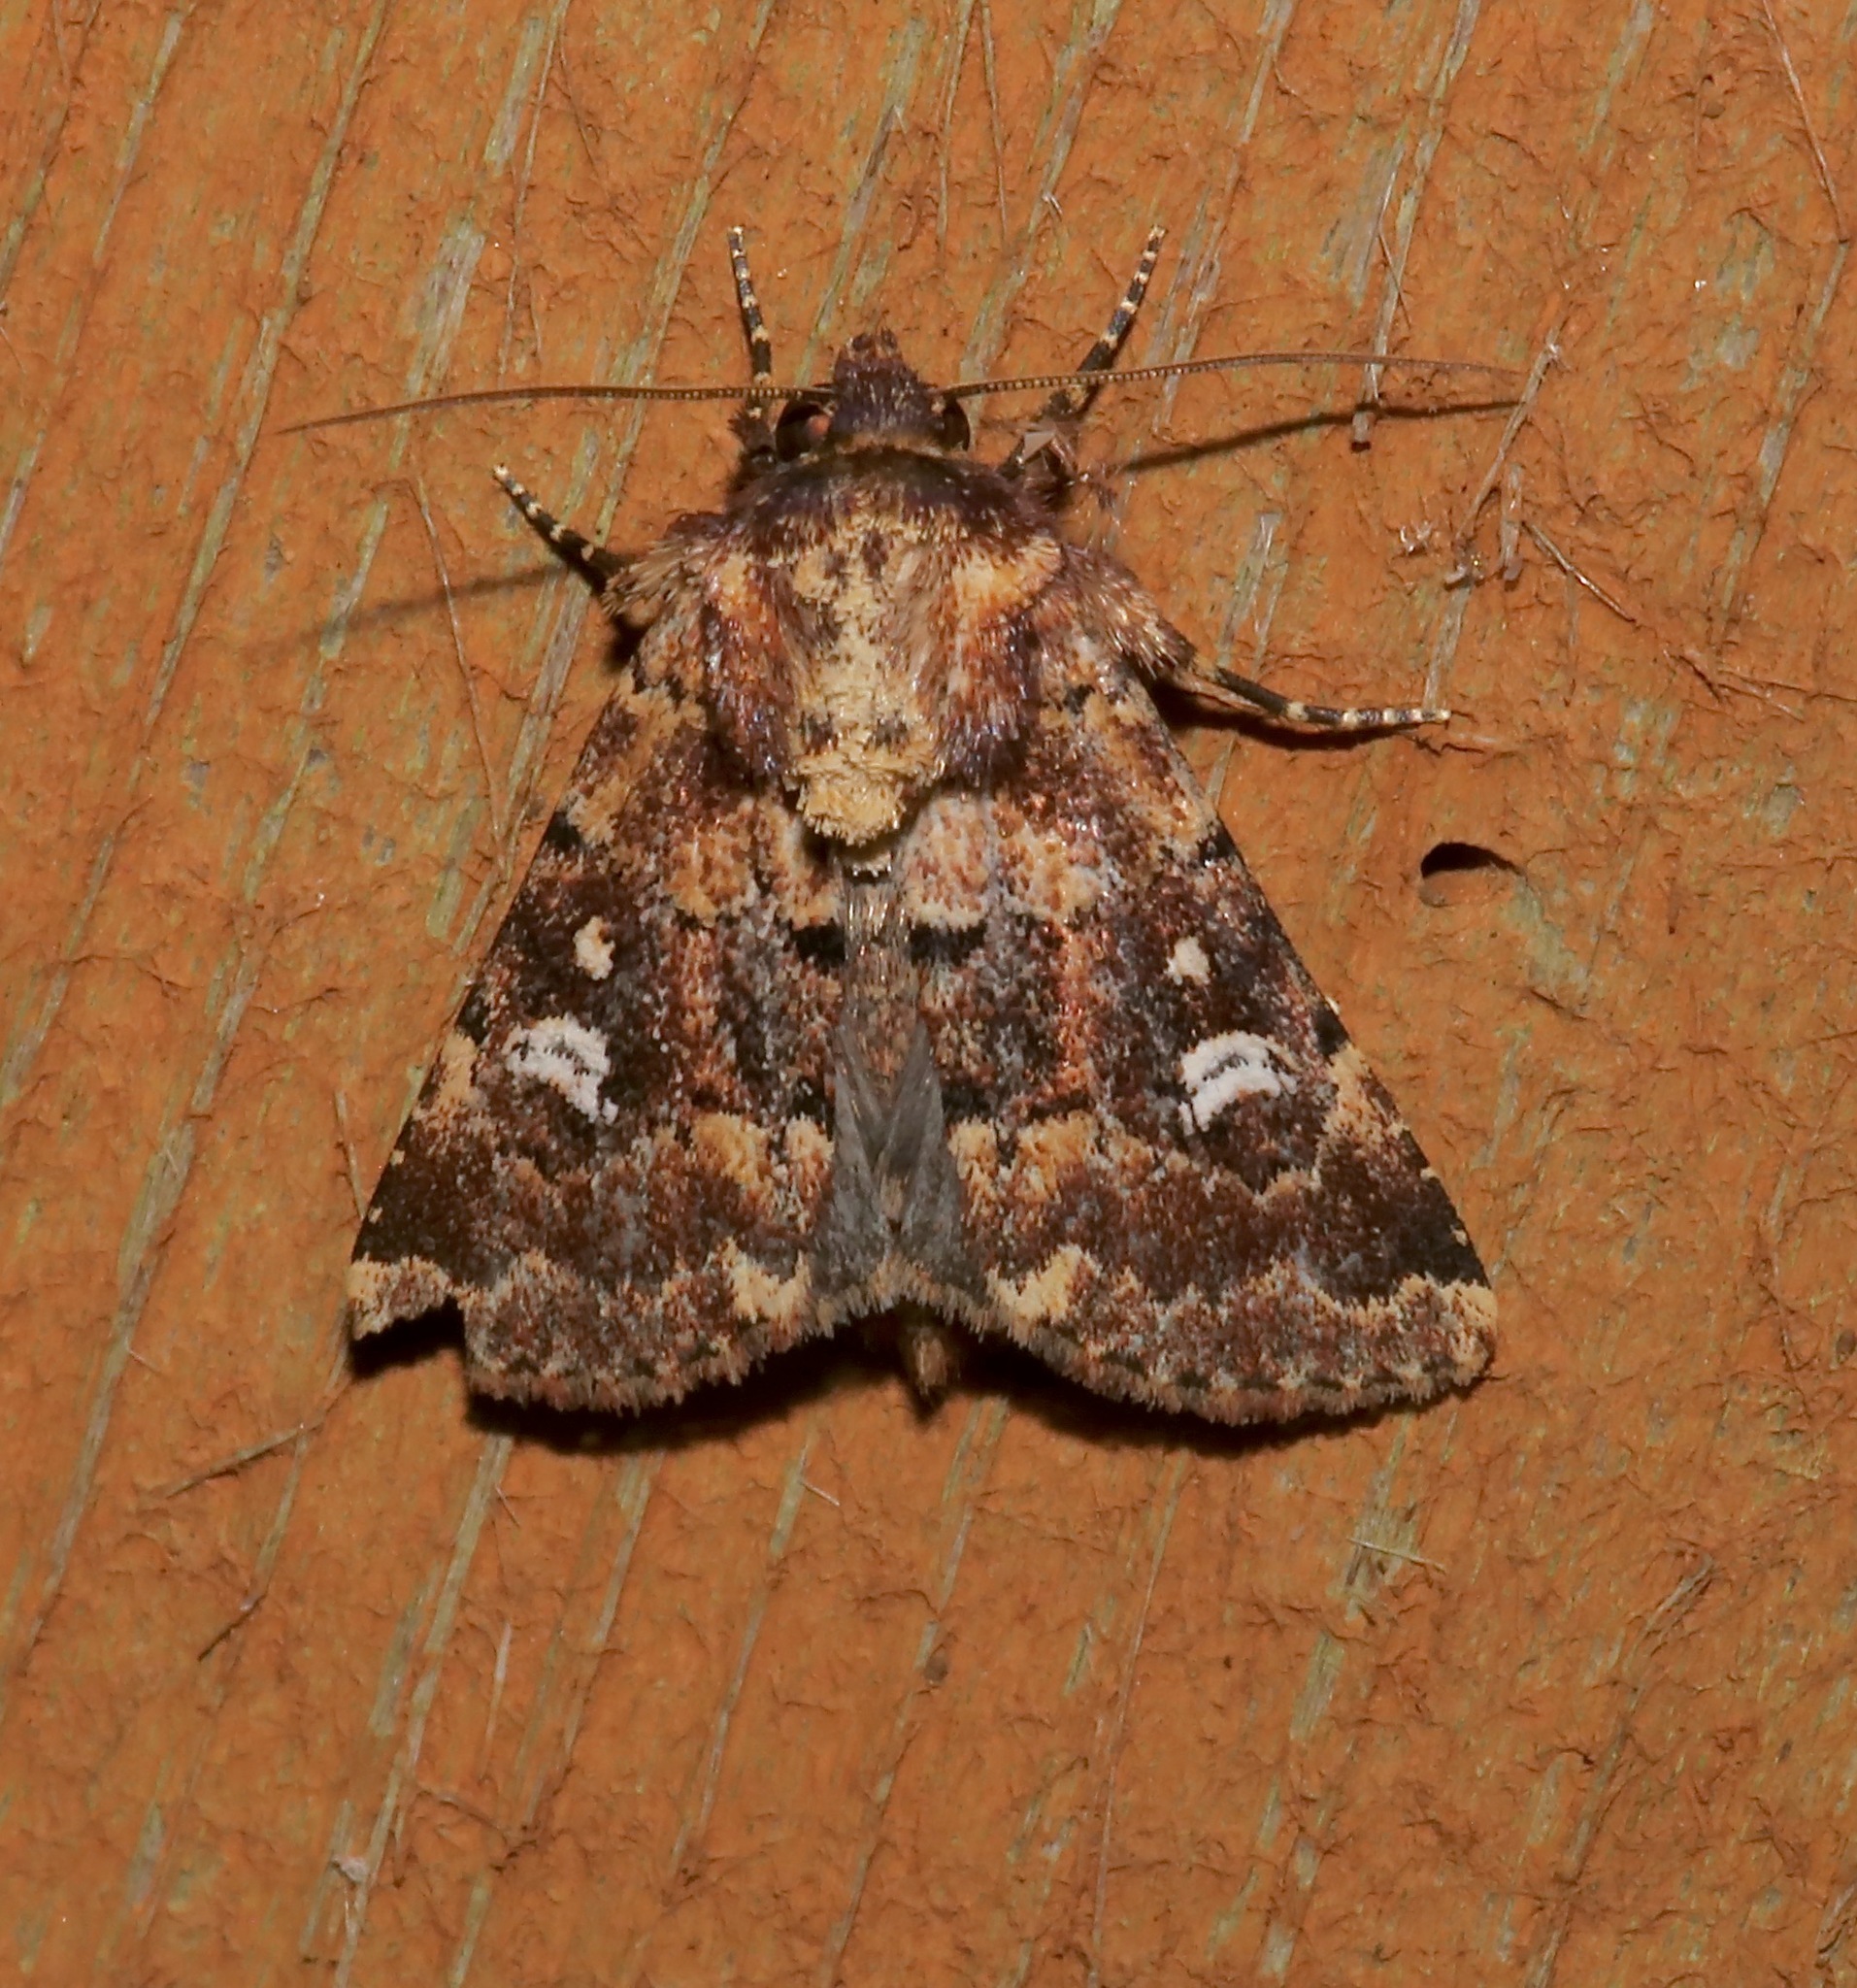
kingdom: Animalia
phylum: Arthropoda
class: Insecta
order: Lepidoptera
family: Noctuidae
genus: Properigea
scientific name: Properigea tapeta
